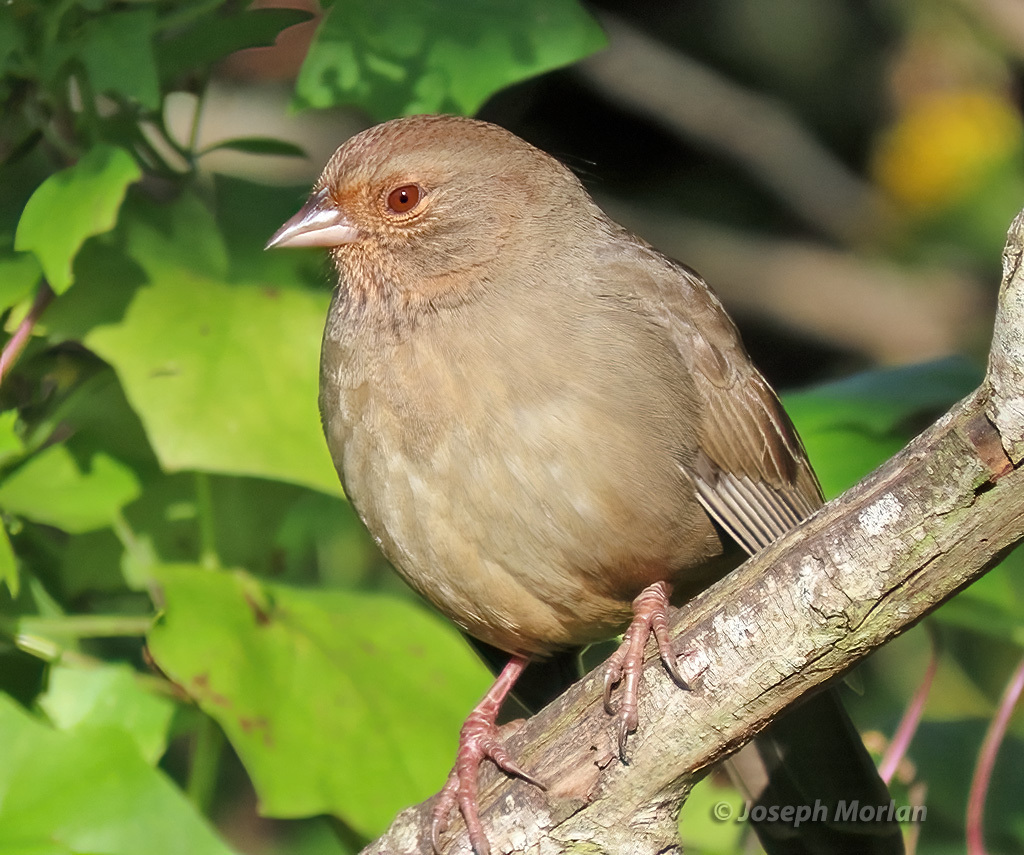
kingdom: Animalia
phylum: Chordata
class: Aves
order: Passeriformes
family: Passerellidae
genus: Melozone
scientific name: Melozone crissalis
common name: California towhee
